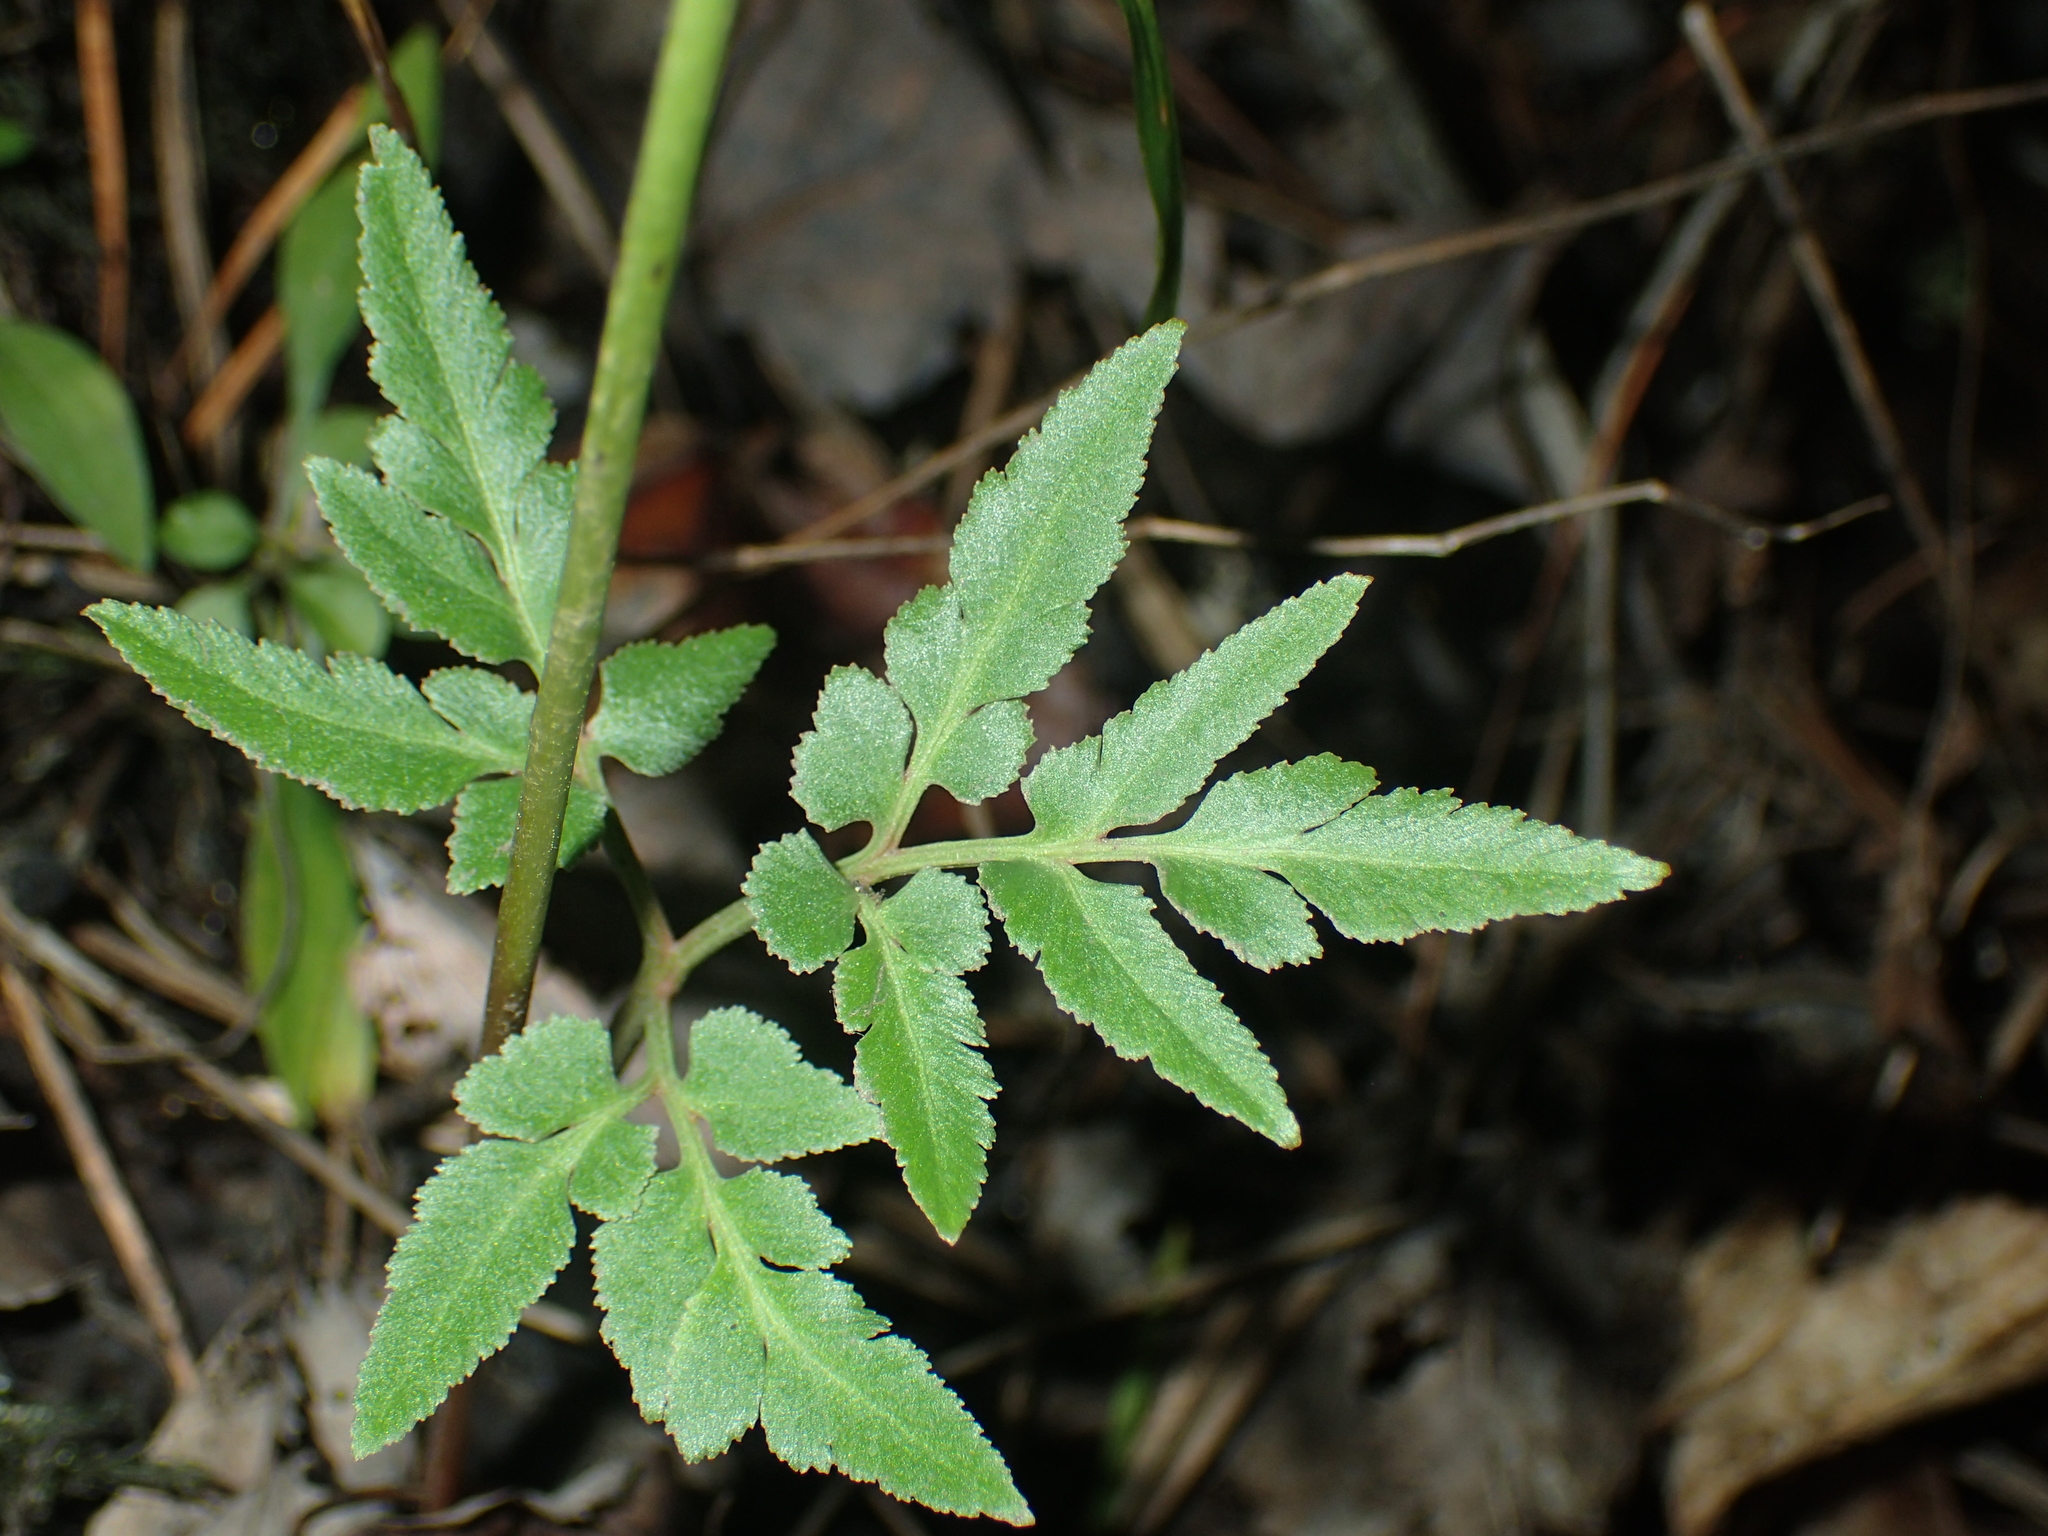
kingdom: Plantae
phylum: Tracheophyta
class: Polypodiopsida
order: Ophioglossales
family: Ophioglossaceae
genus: Sceptridium
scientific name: Sceptridium dissectum
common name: Cut-leaved grapefern
